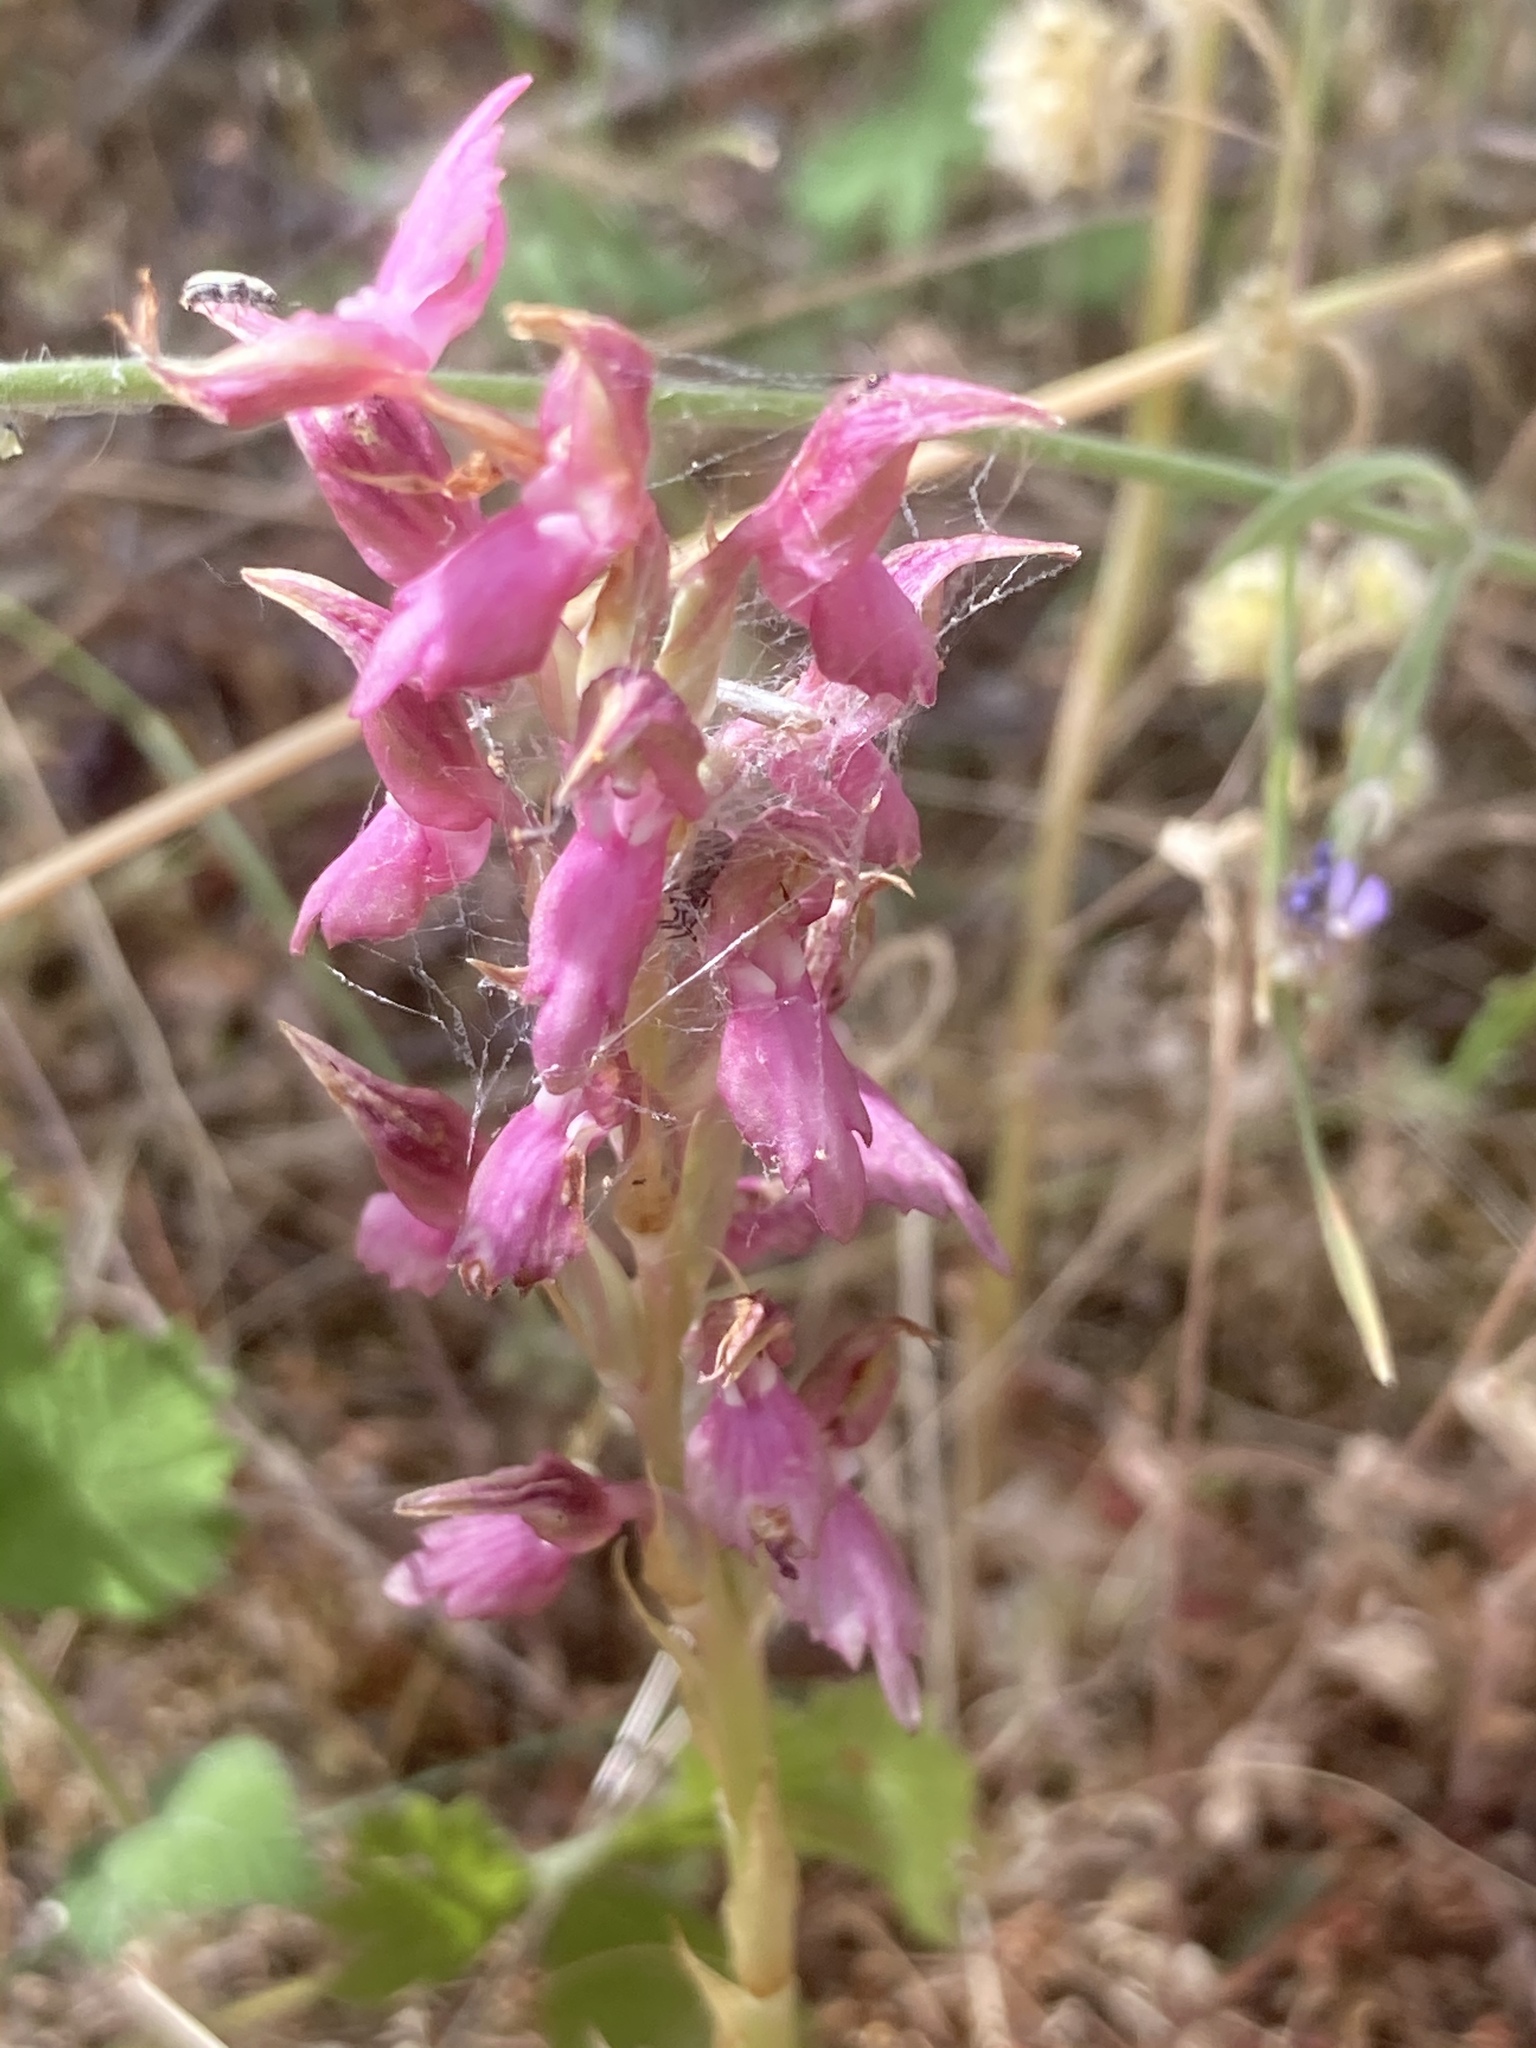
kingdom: Plantae
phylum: Tracheophyta
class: Liliopsida
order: Asparagales
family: Orchidaceae
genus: Anacamptis
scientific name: Anacamptis sancta
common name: Holy orchid
